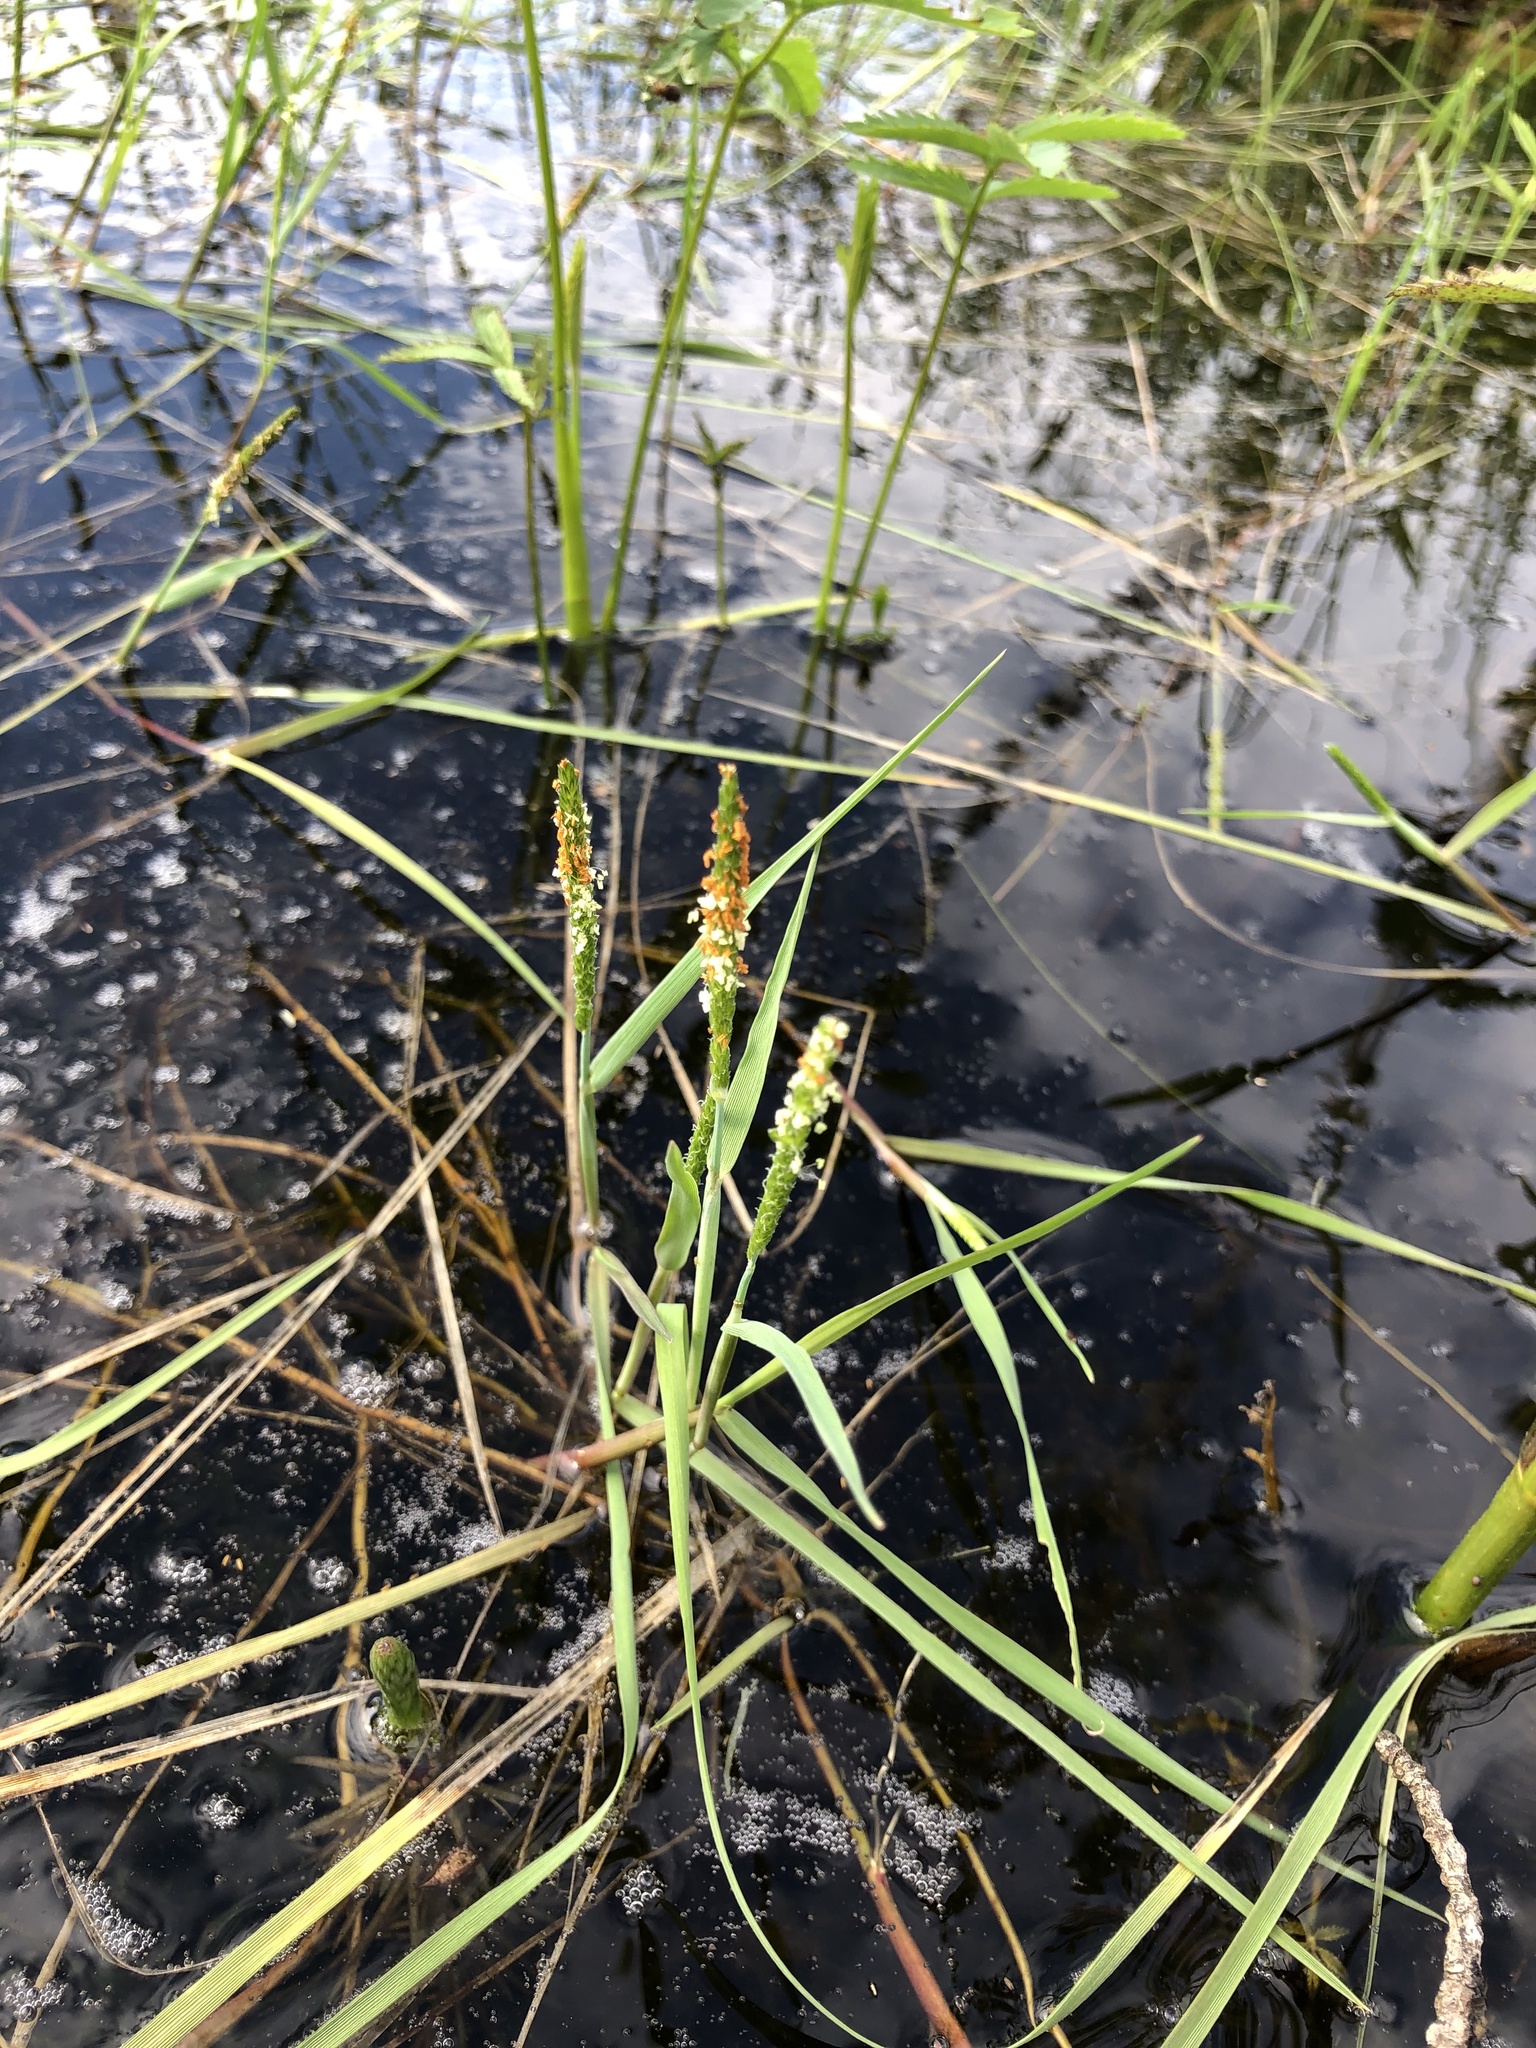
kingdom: Plantae
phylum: Tracheophyta
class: Liliopsida
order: Poales
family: Poaceae
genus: Alopecurus
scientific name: Alopecurus aequalis
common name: Orange foxtail
